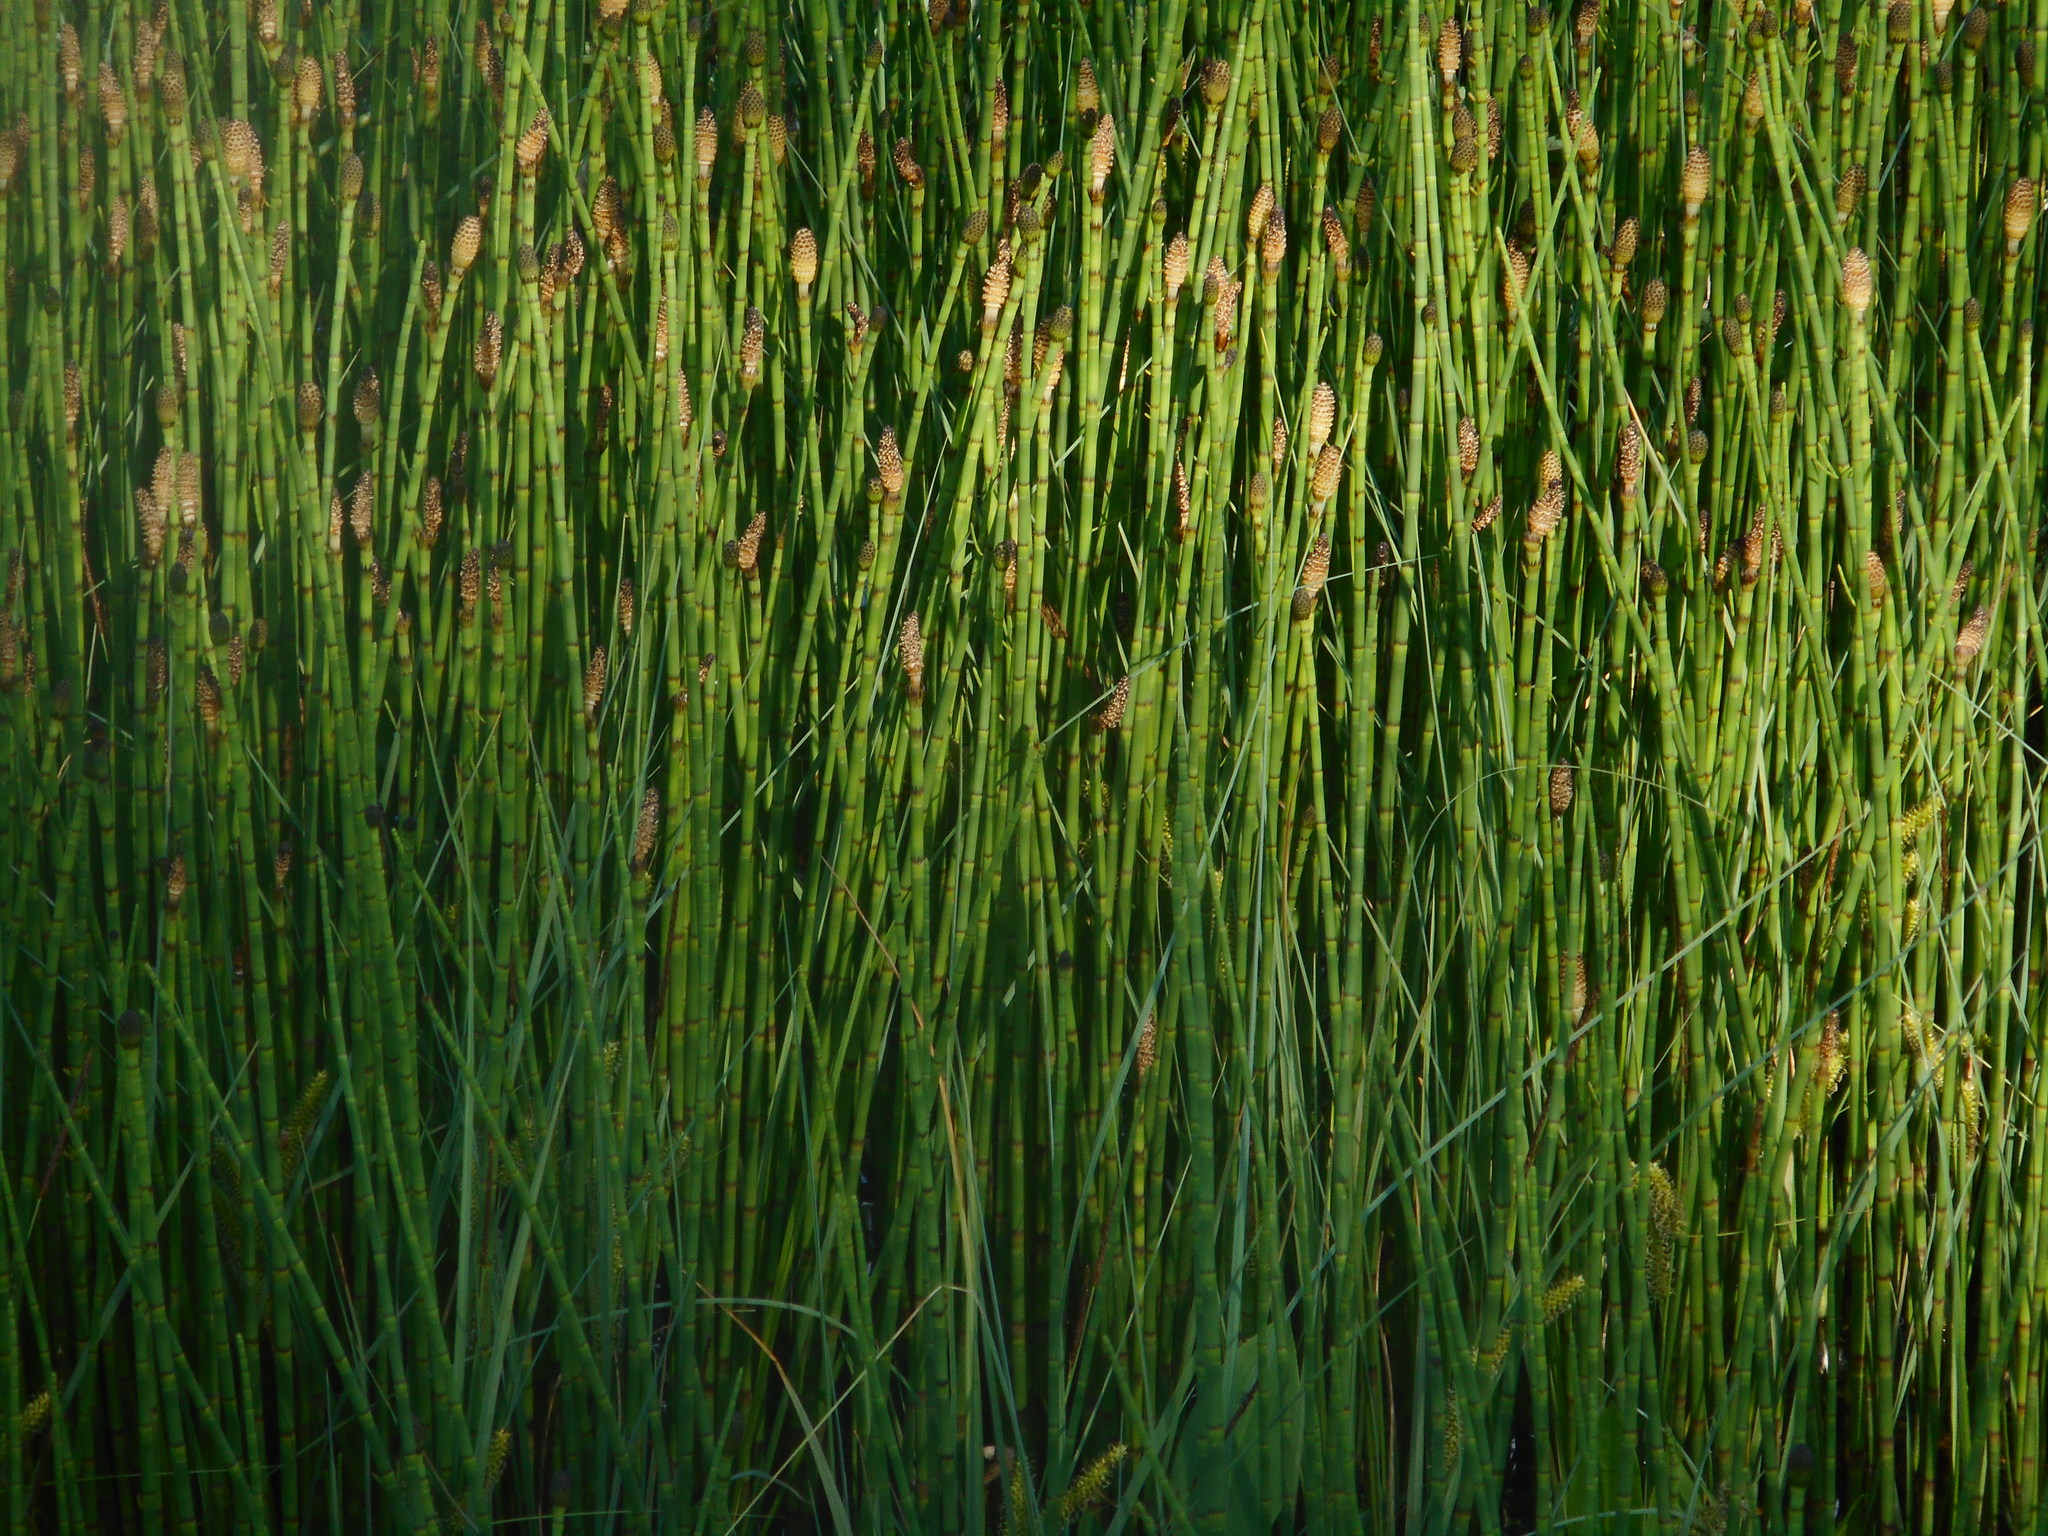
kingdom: Plantae
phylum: Tracheophyta
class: Polypodiopsida
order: Equisetales
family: Equisetaceae
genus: Equisetum
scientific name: Equisetum fluviatile
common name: Water horsetail
